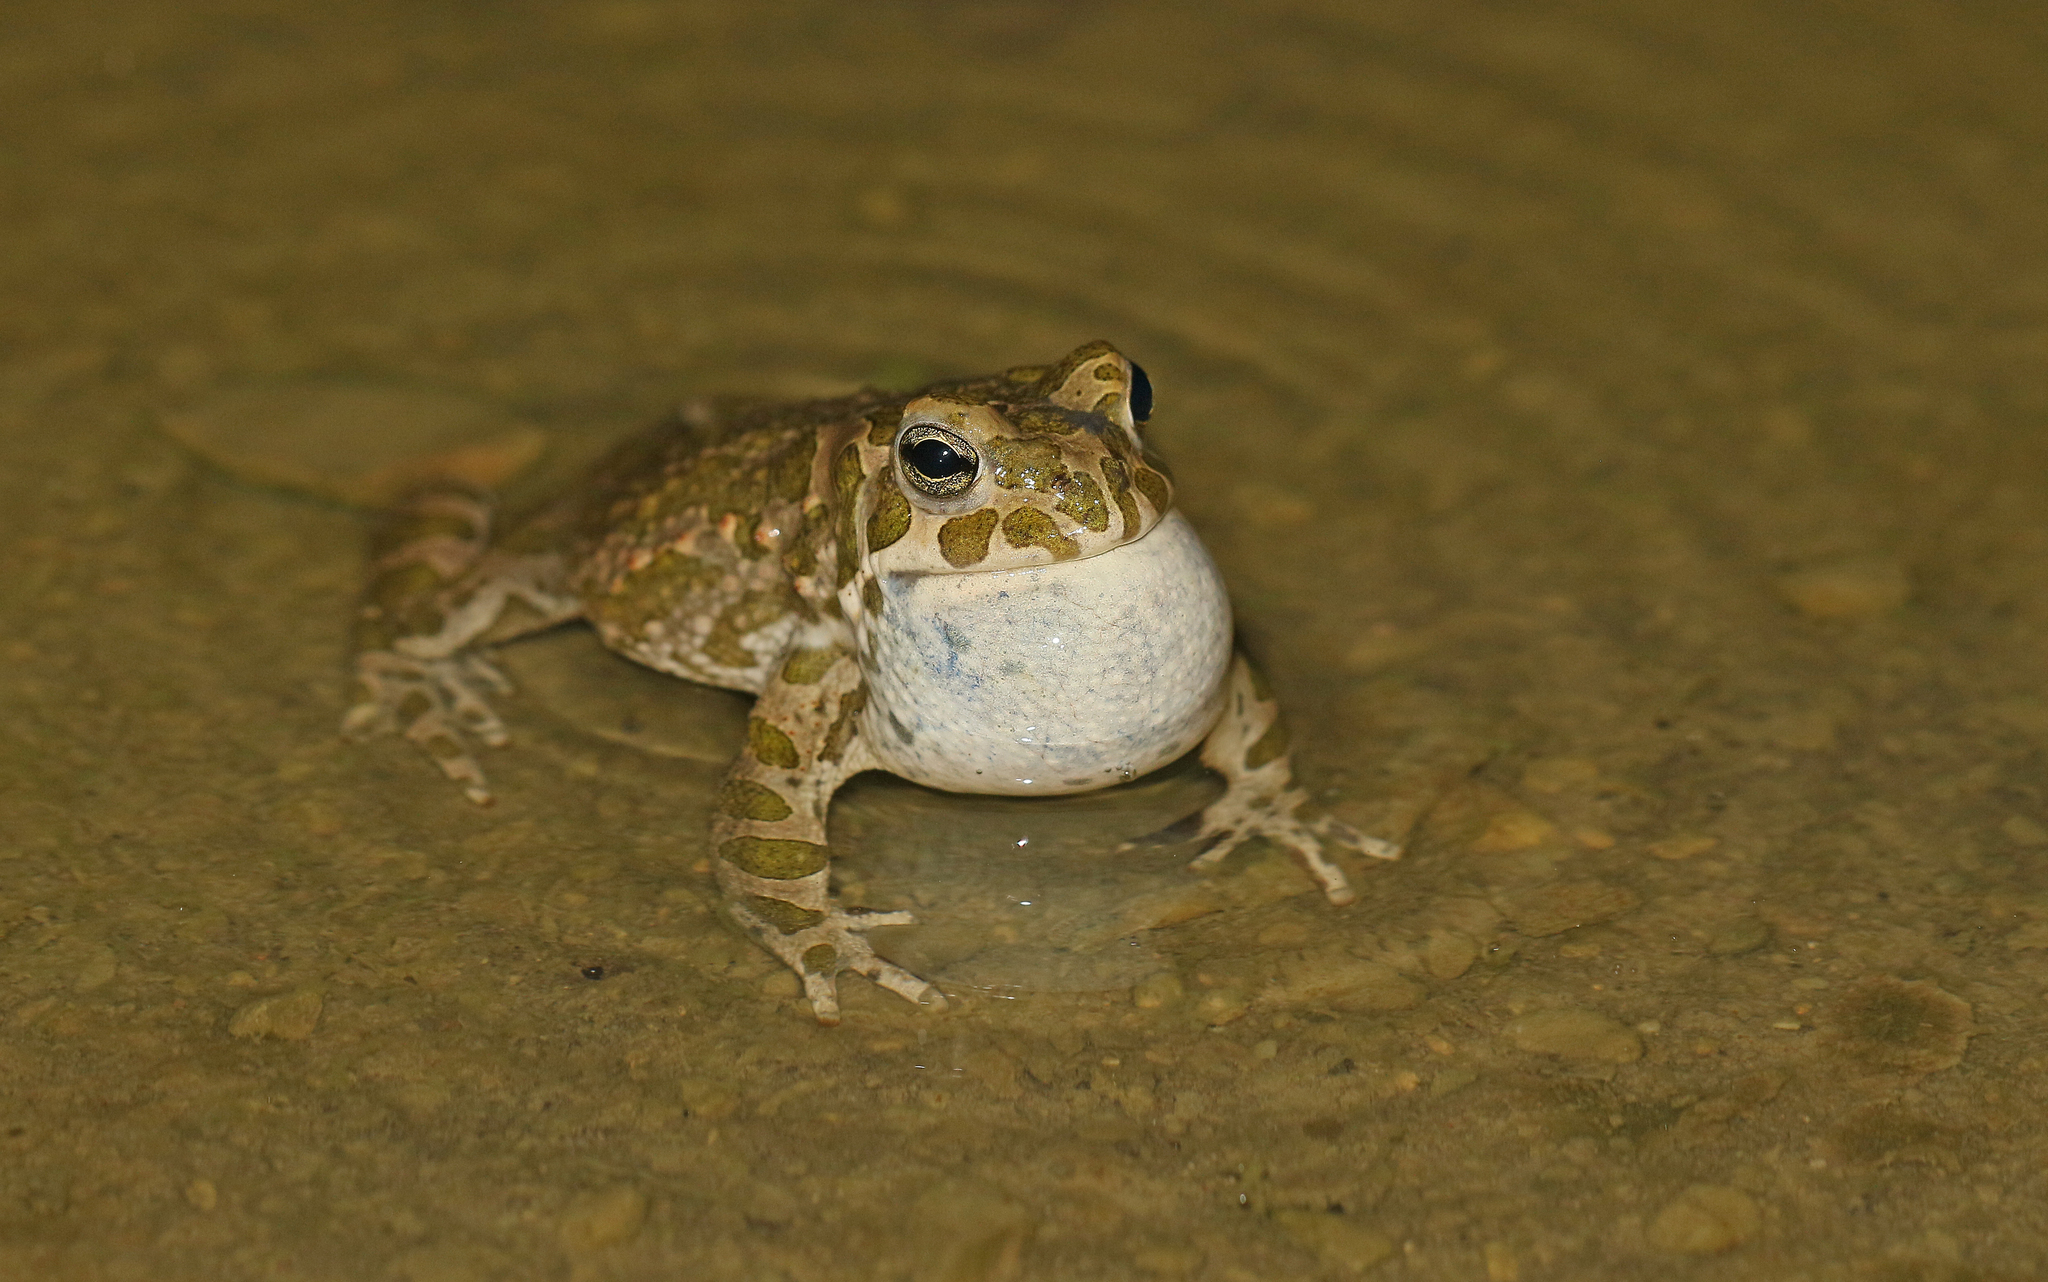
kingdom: Animalia
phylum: Chordata
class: Amphibia
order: Anura
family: Bufonidae
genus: Bufotes
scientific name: Bufotes viridis
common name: European green toad
